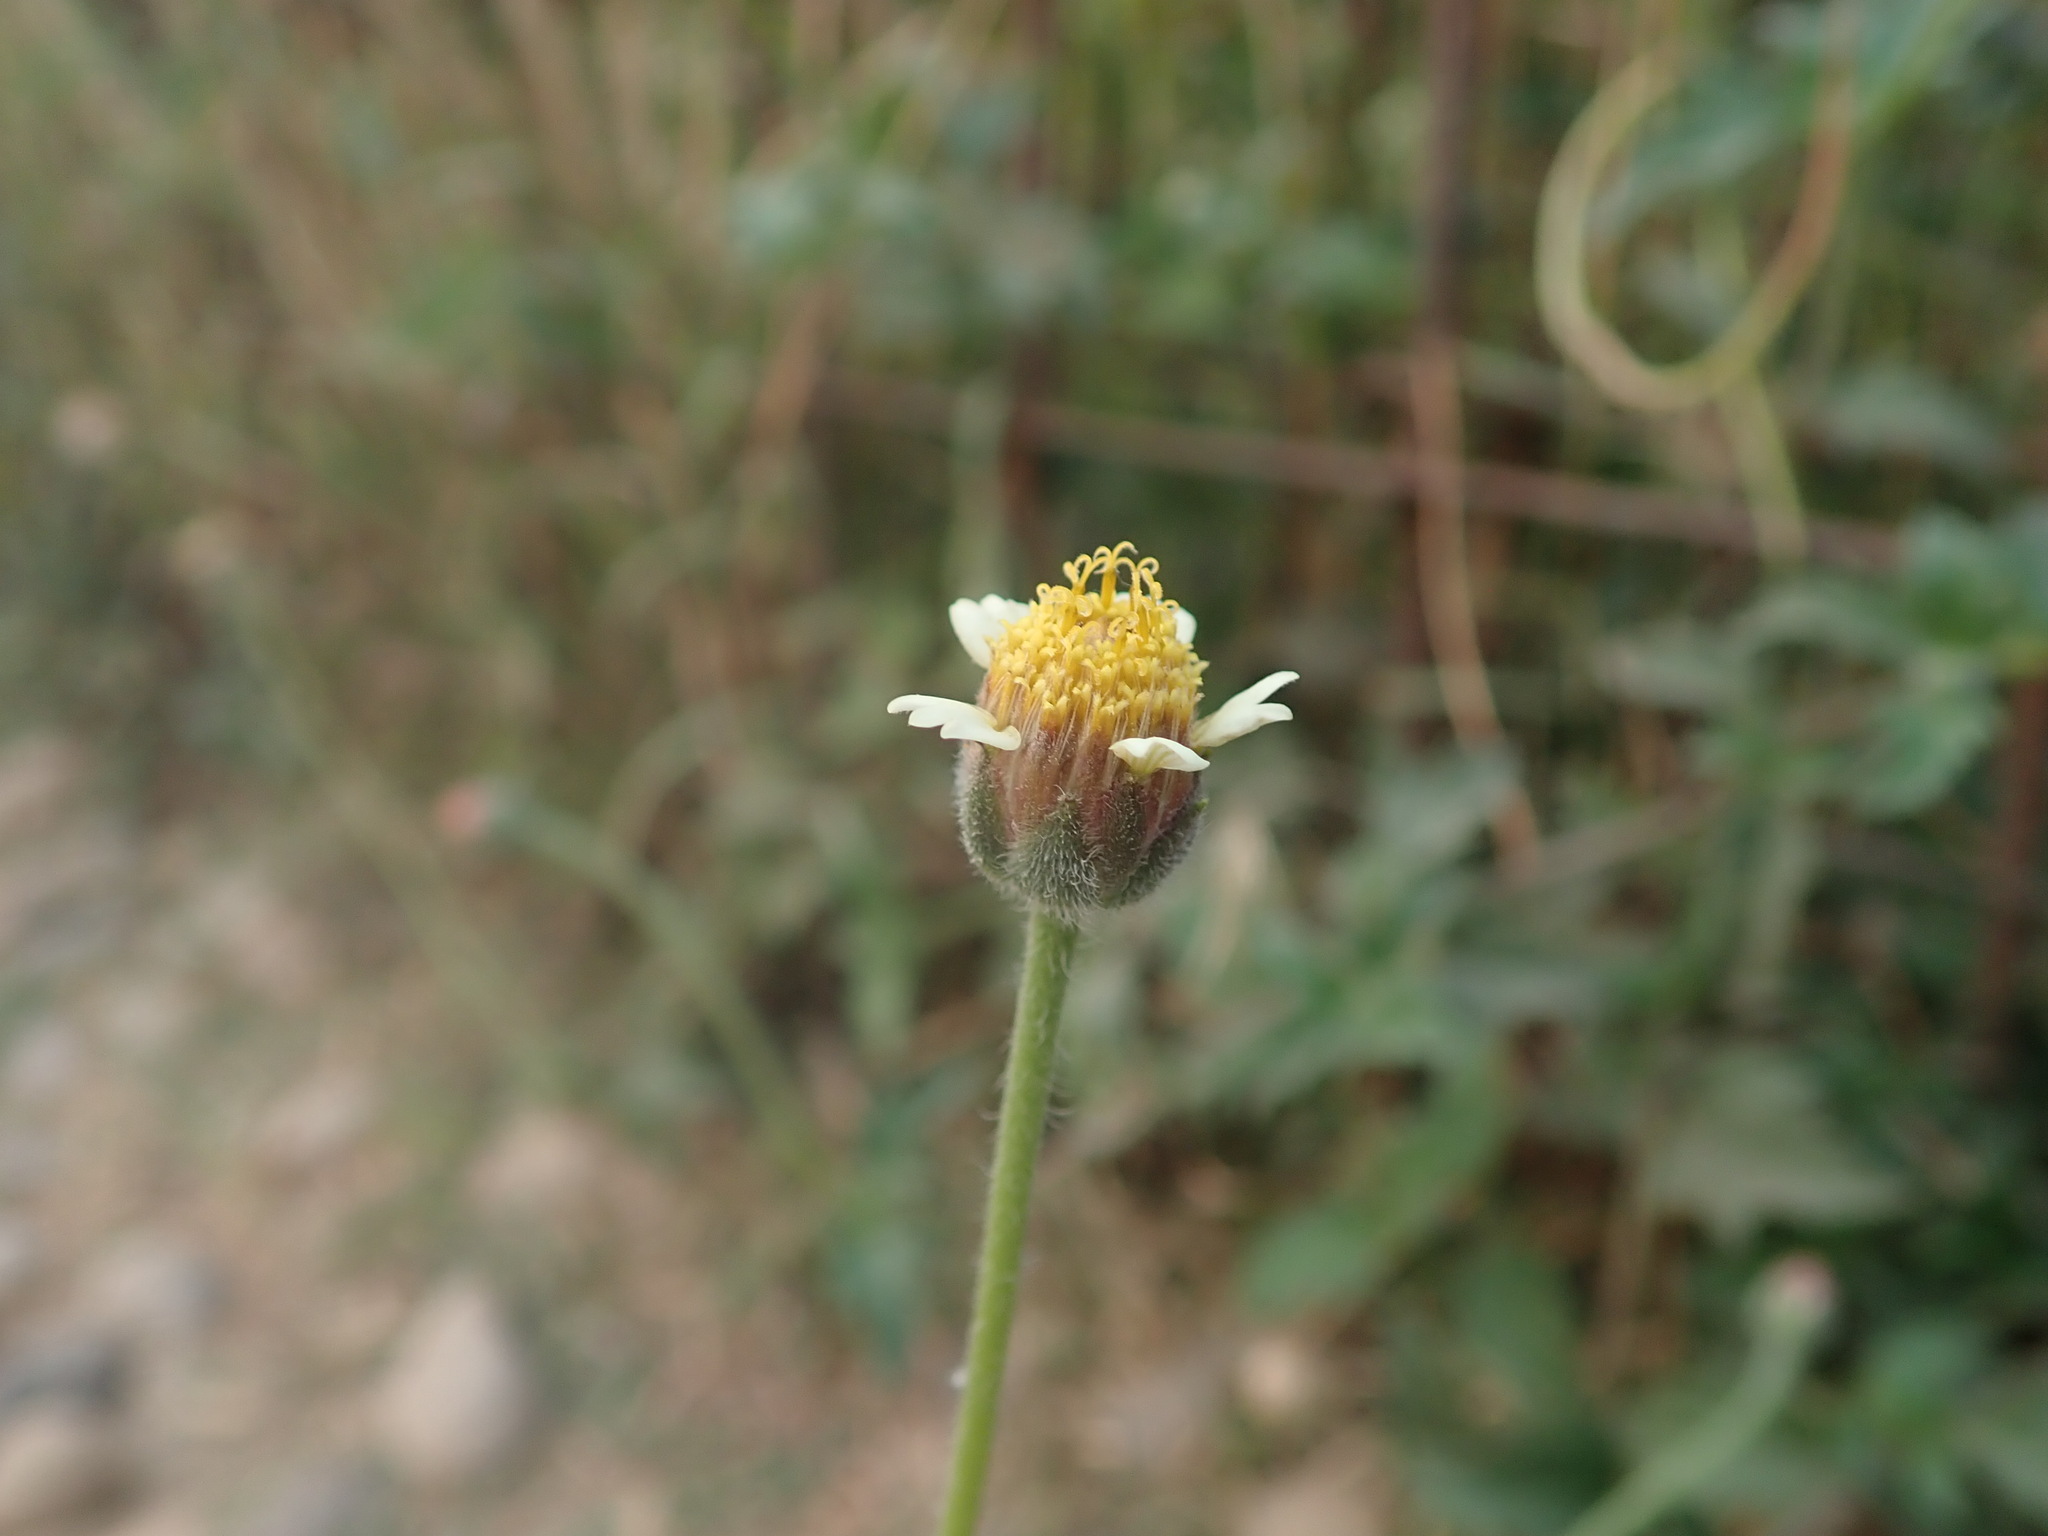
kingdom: Plantae
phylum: Tracheophyta
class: Magnoliopsida
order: Asterales
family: Asteraceae
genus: Tridax
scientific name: Tridax procumbens
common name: Coatbuttons
